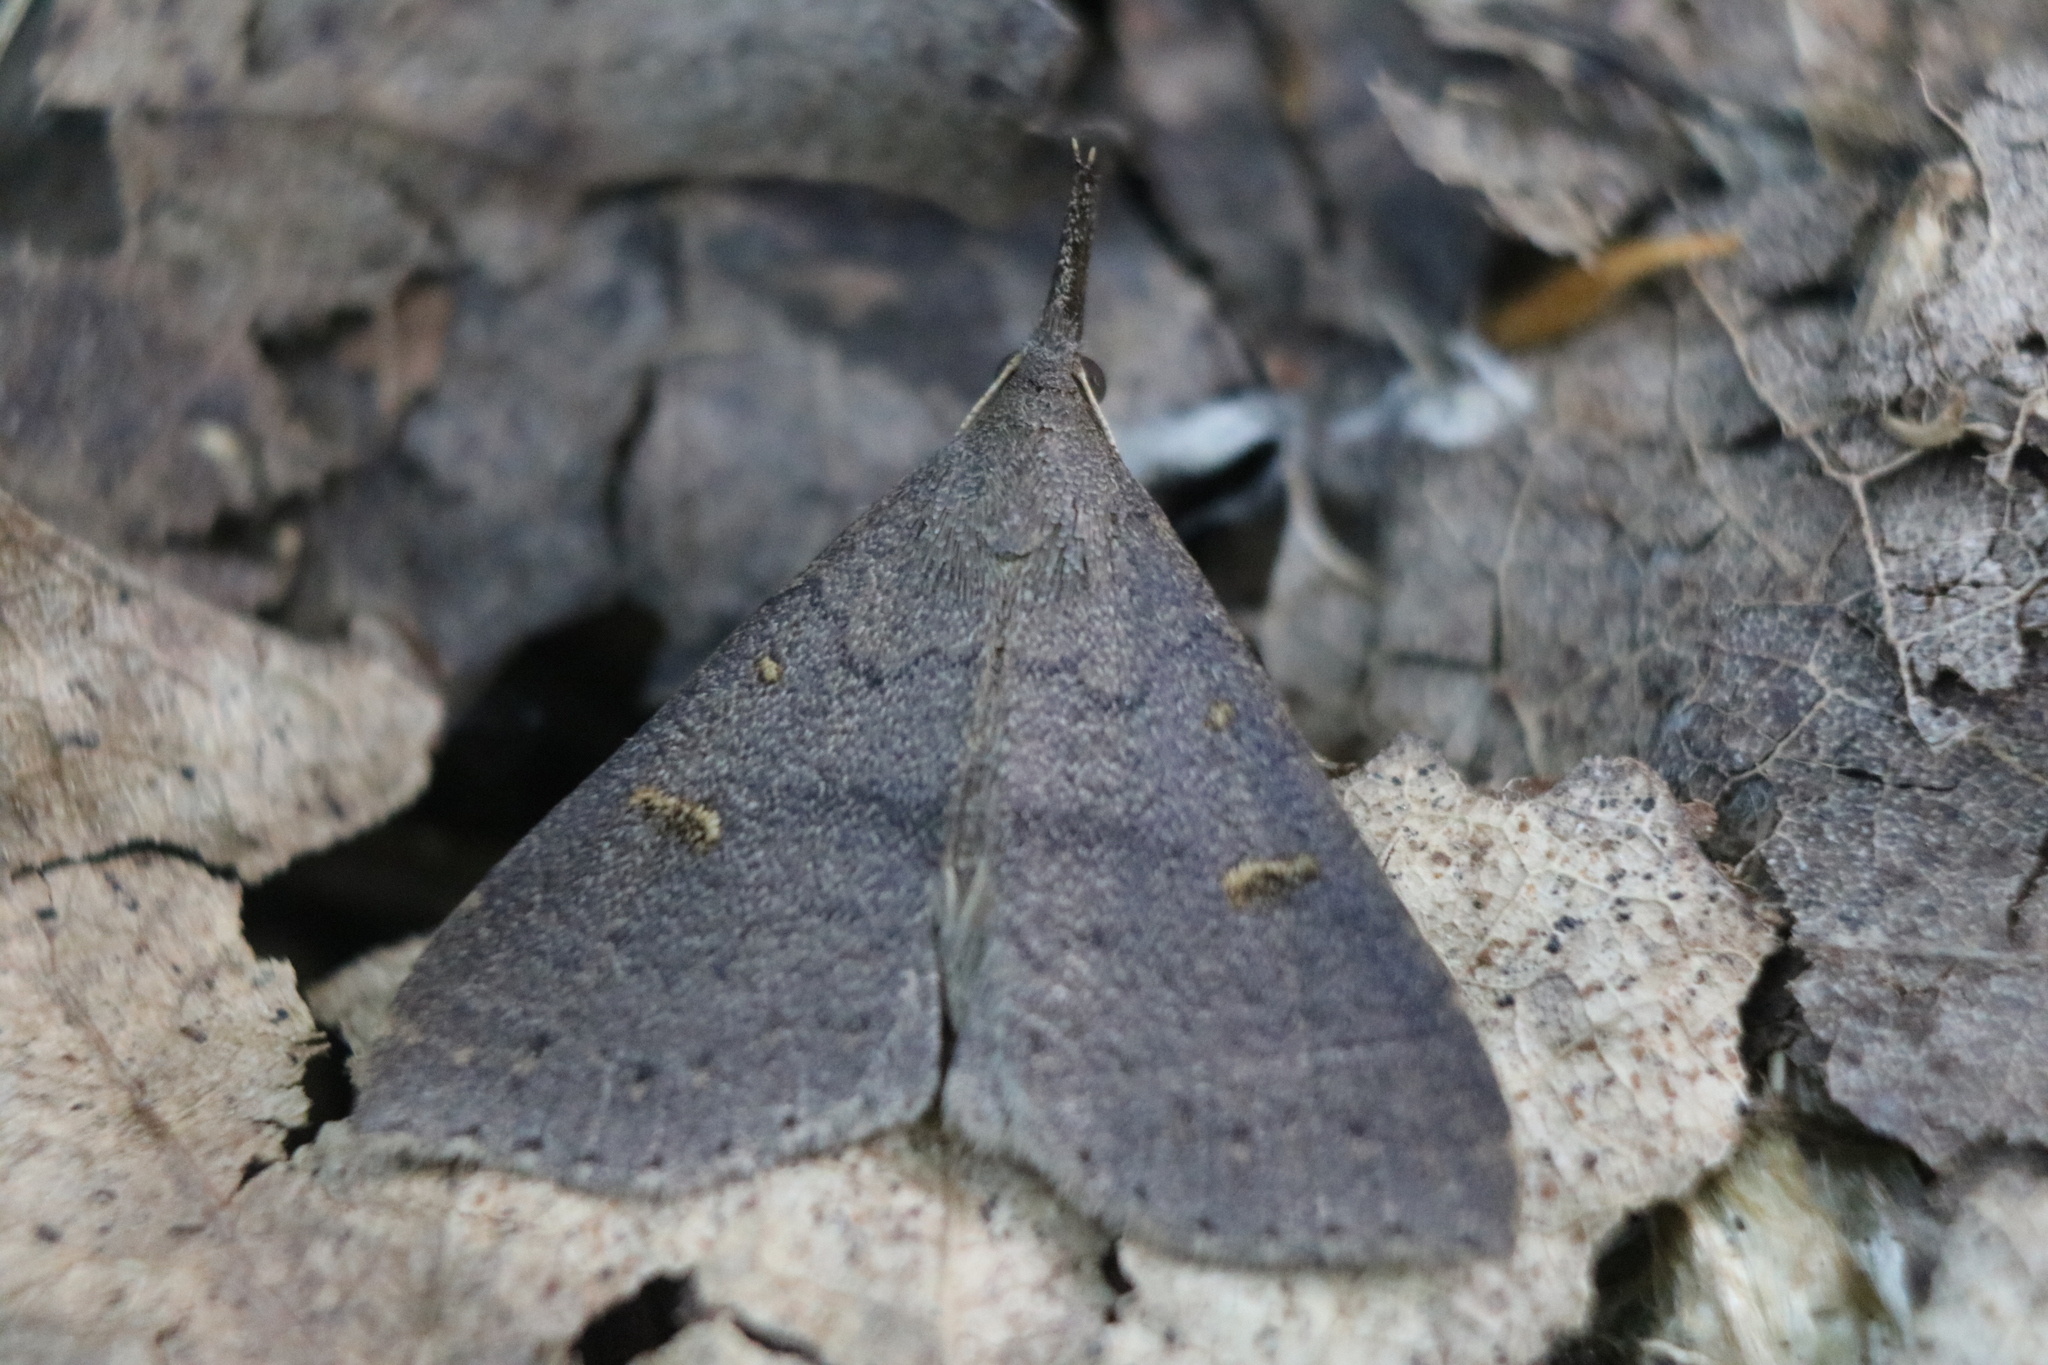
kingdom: Animalia
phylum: Arthropoda
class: Insecta
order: Lepidoptera
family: Erebidae
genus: Renia
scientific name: Renia adspergillus
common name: Speckled renia moth
